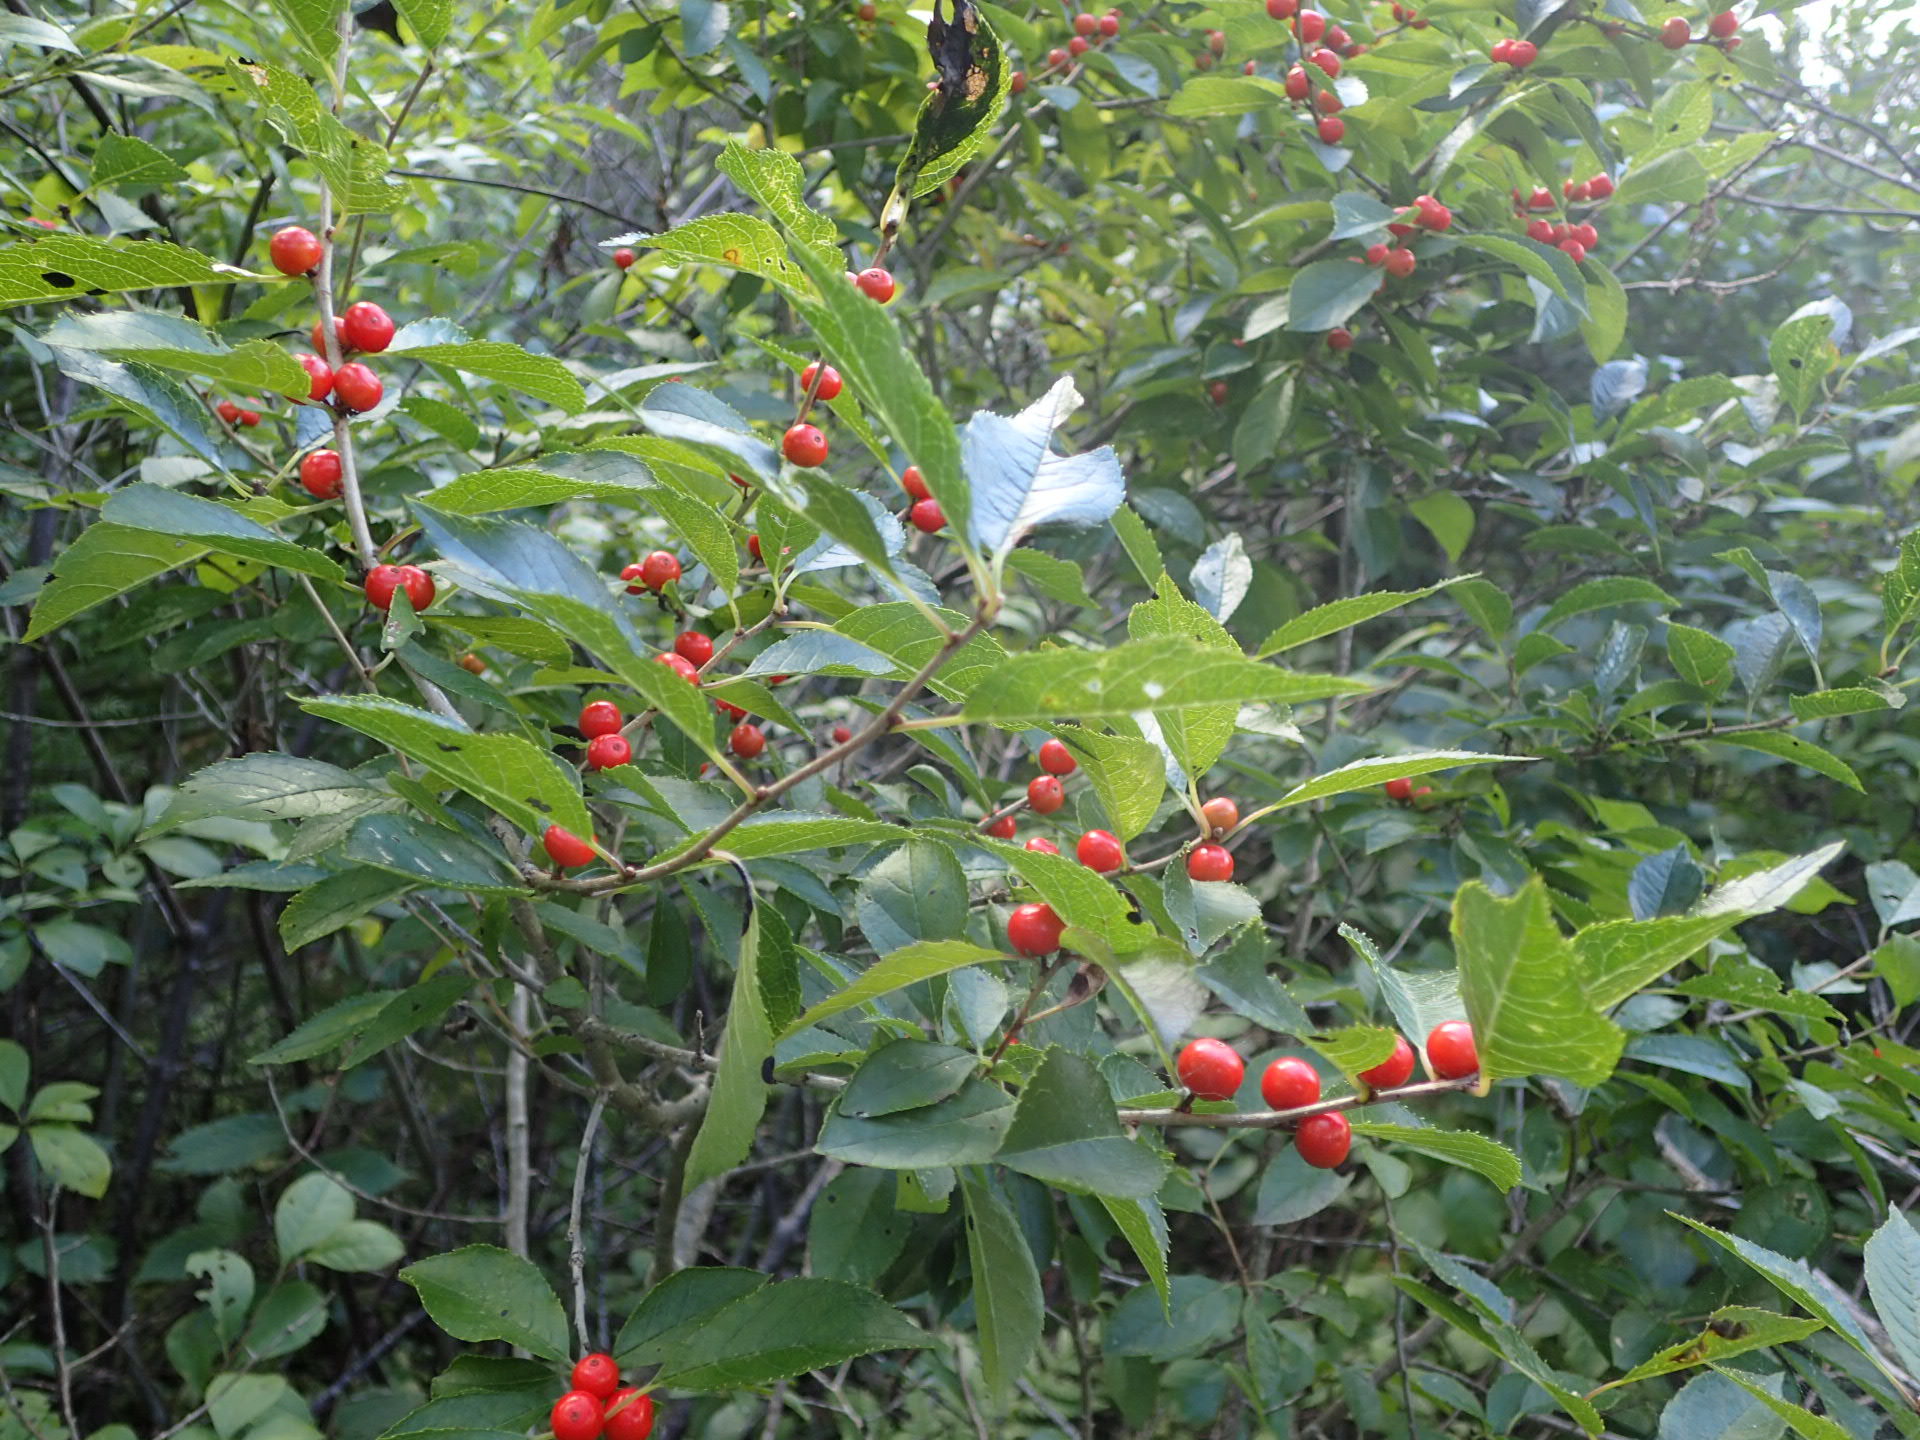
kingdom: Plantae
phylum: Tracheophyta
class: Magnoliopsida
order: Aquifoliales
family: Aquifoliaceae
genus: Ilex
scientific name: Ilex verticillata
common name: Virginia winterberry
